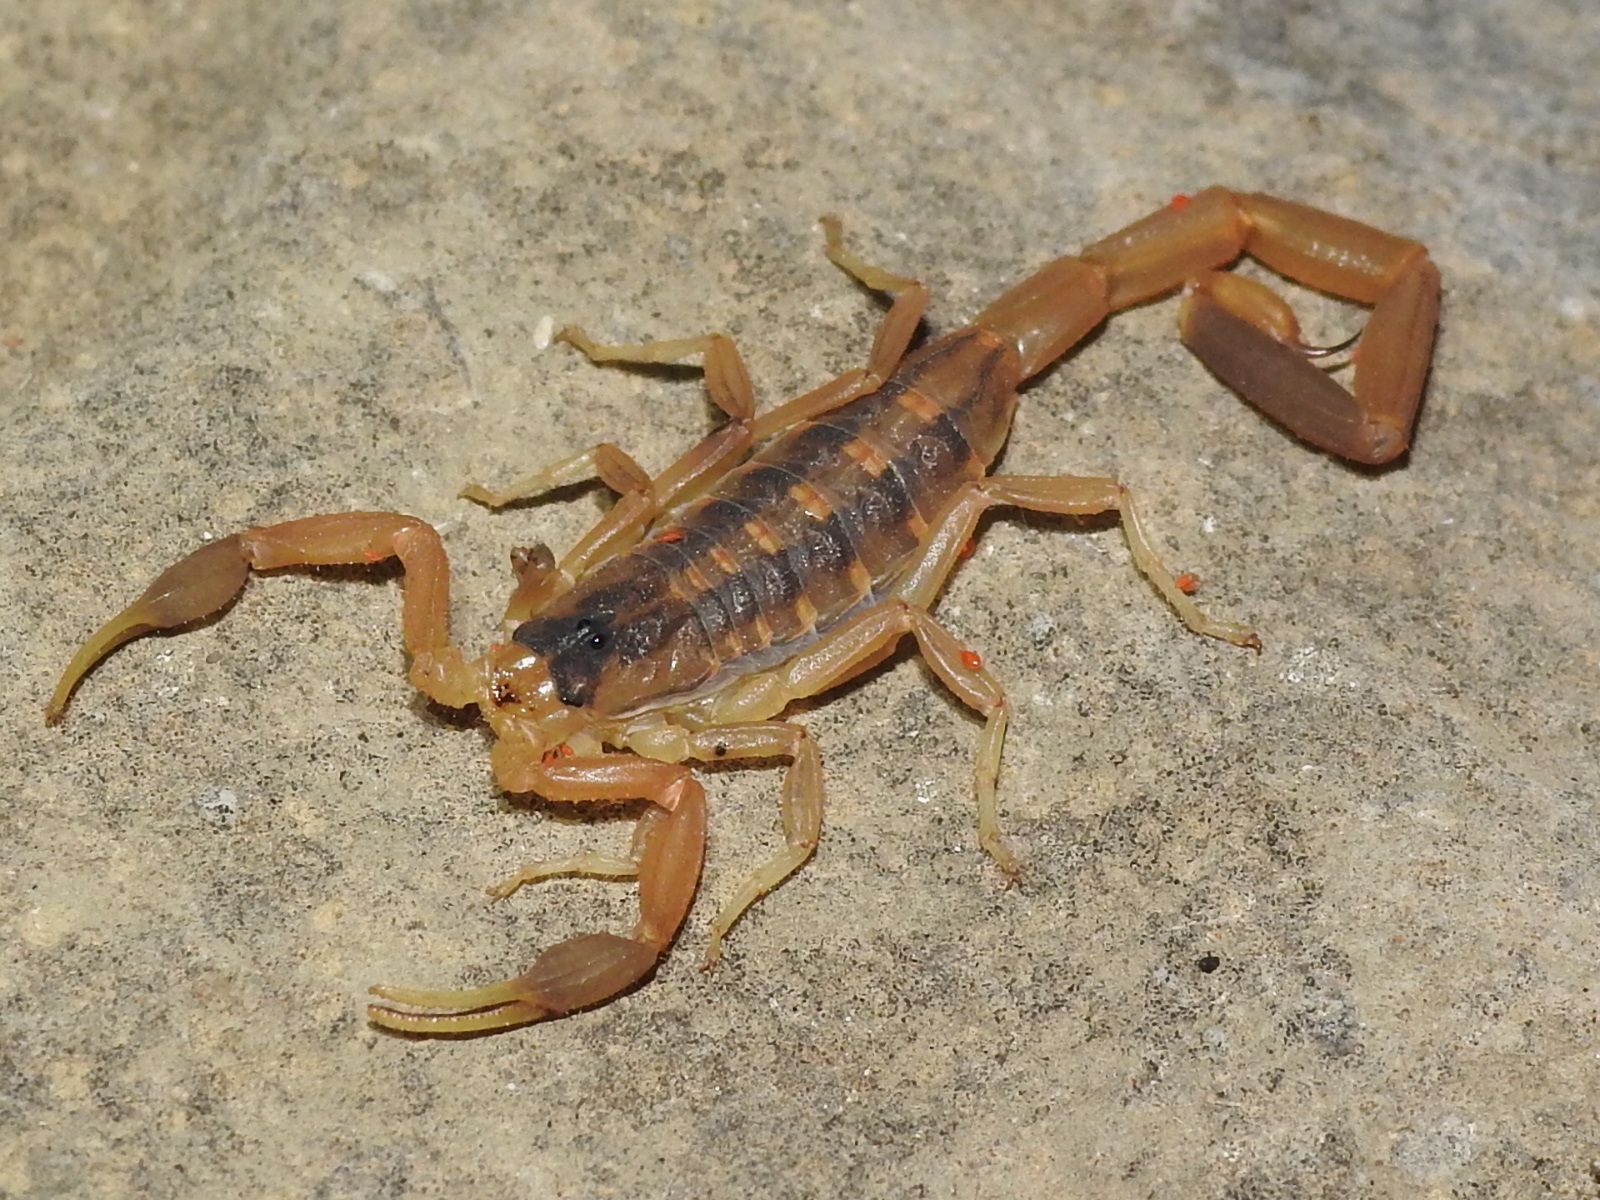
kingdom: Animalia
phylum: Arthropoda
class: Arachnida
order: Scorpiones
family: Buthidae
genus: Centruroides
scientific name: Centruroides vittatus
